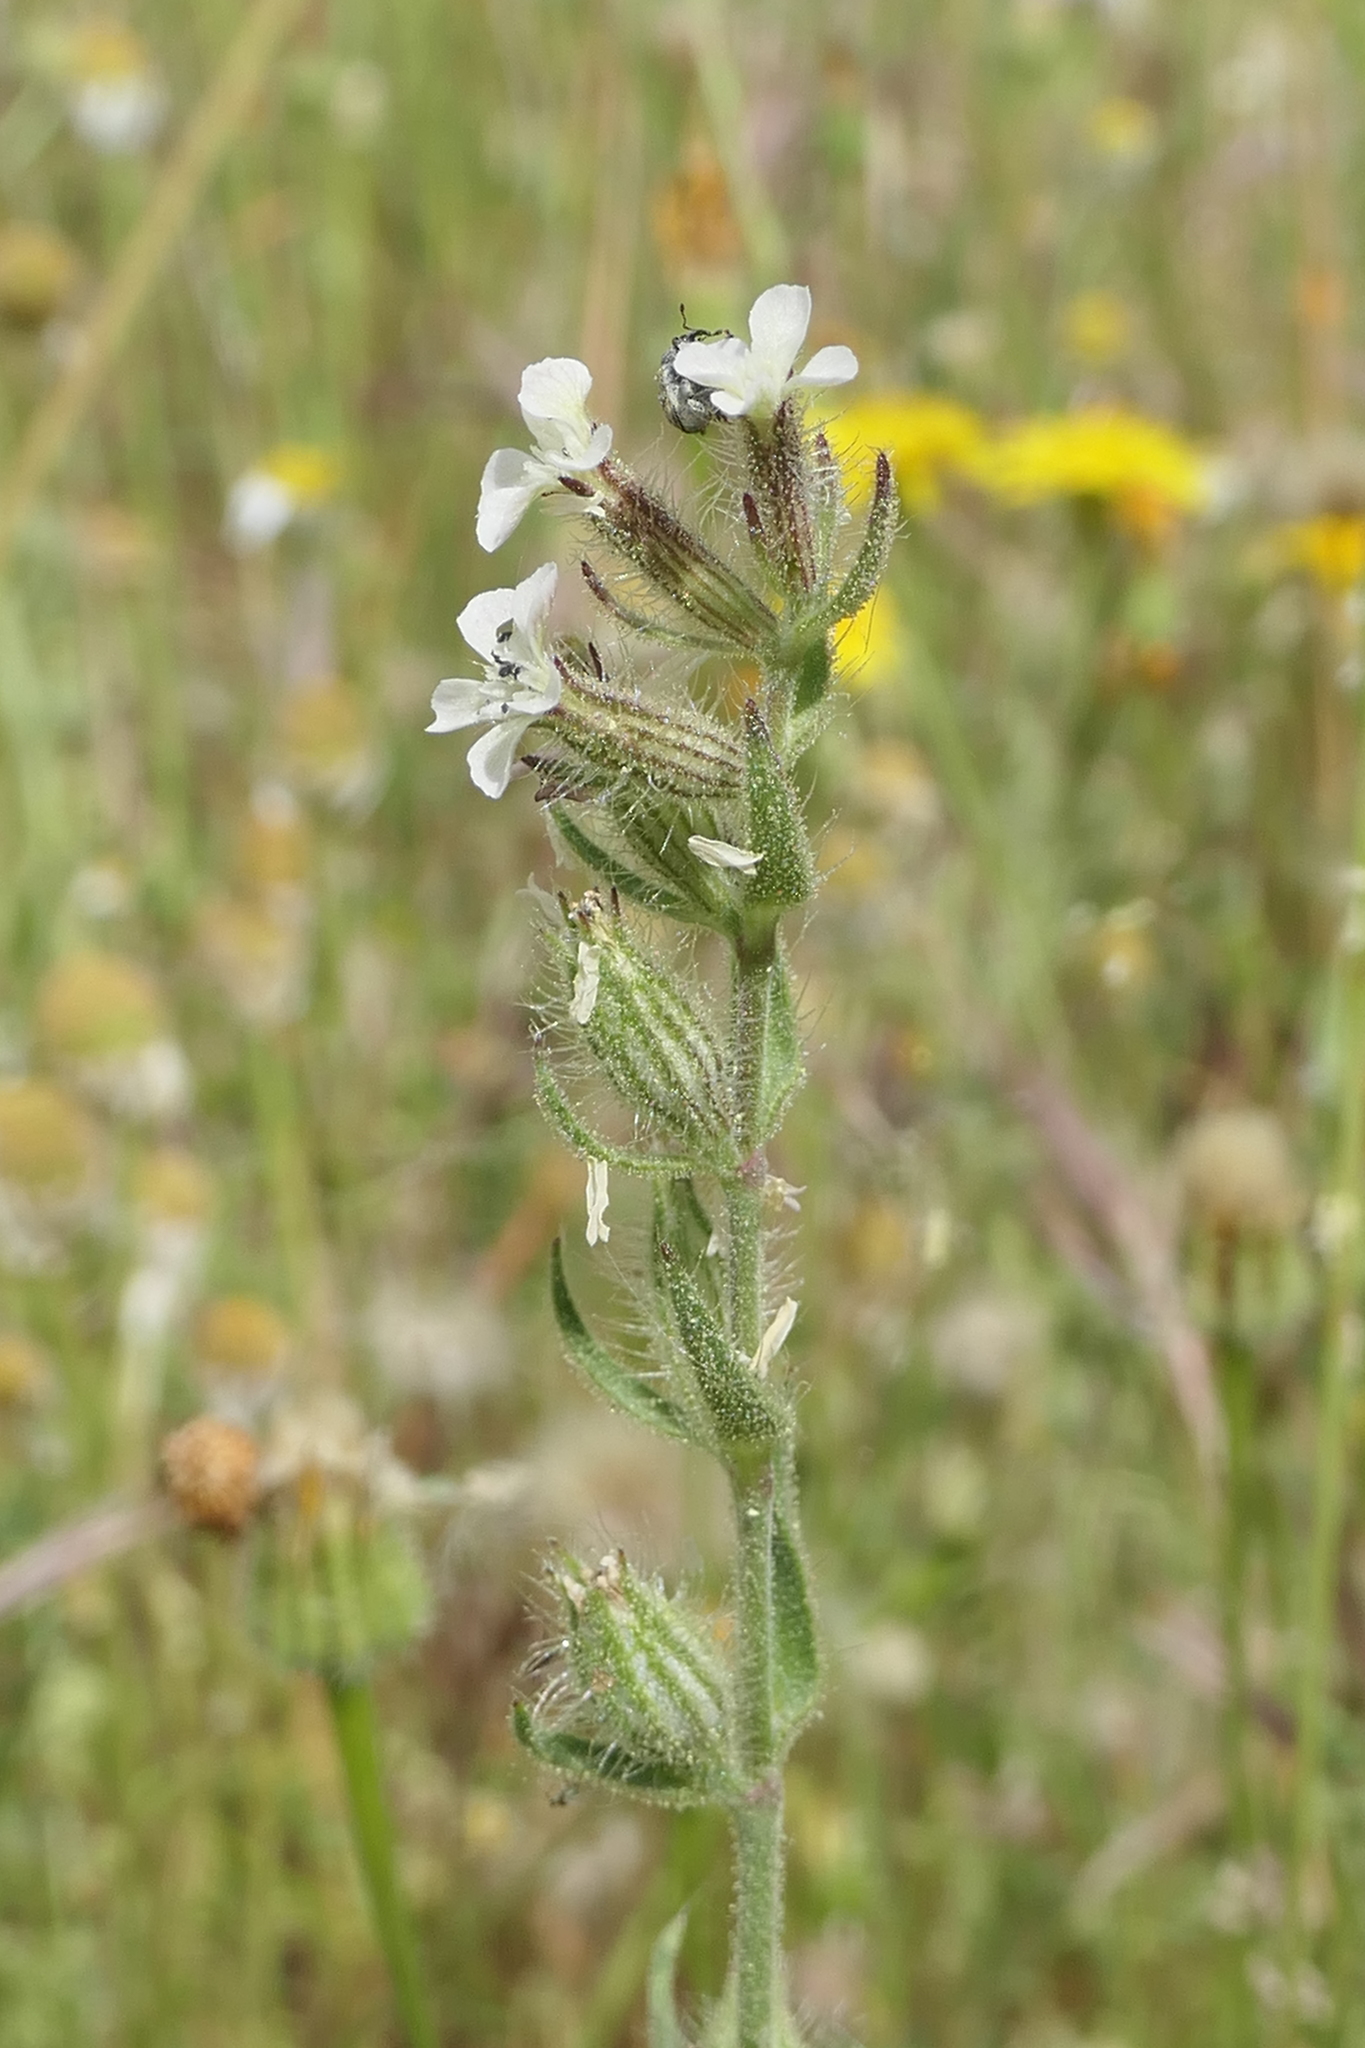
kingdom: Plantae
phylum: Tracheophyta
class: Magnoliopsida
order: Caryophyllales
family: Caryophyllaceae
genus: Silene
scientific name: Silene gallica
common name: Small-flowered catchfly
